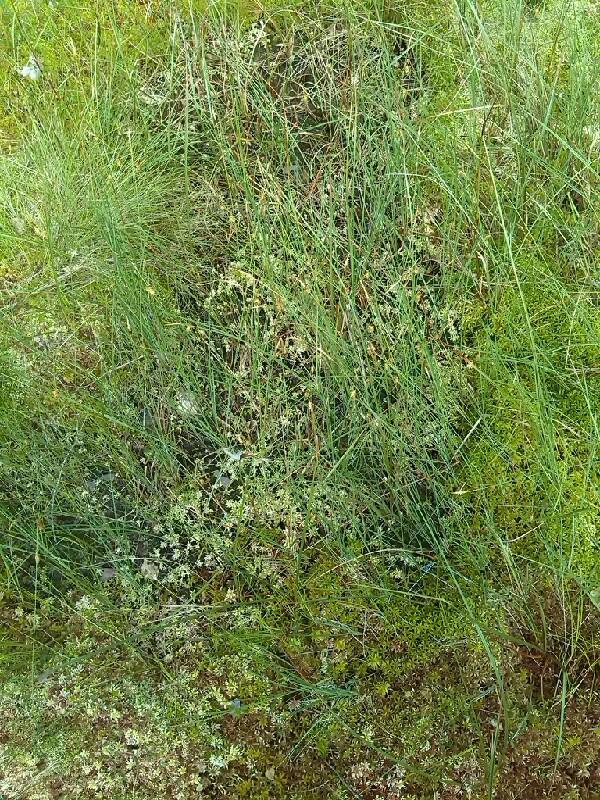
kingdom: Plantae
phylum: Tracheophyta
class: Liliopsida
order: Poales
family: Cyperaceae
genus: Carex
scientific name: Carex limosa
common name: Bog sedge
